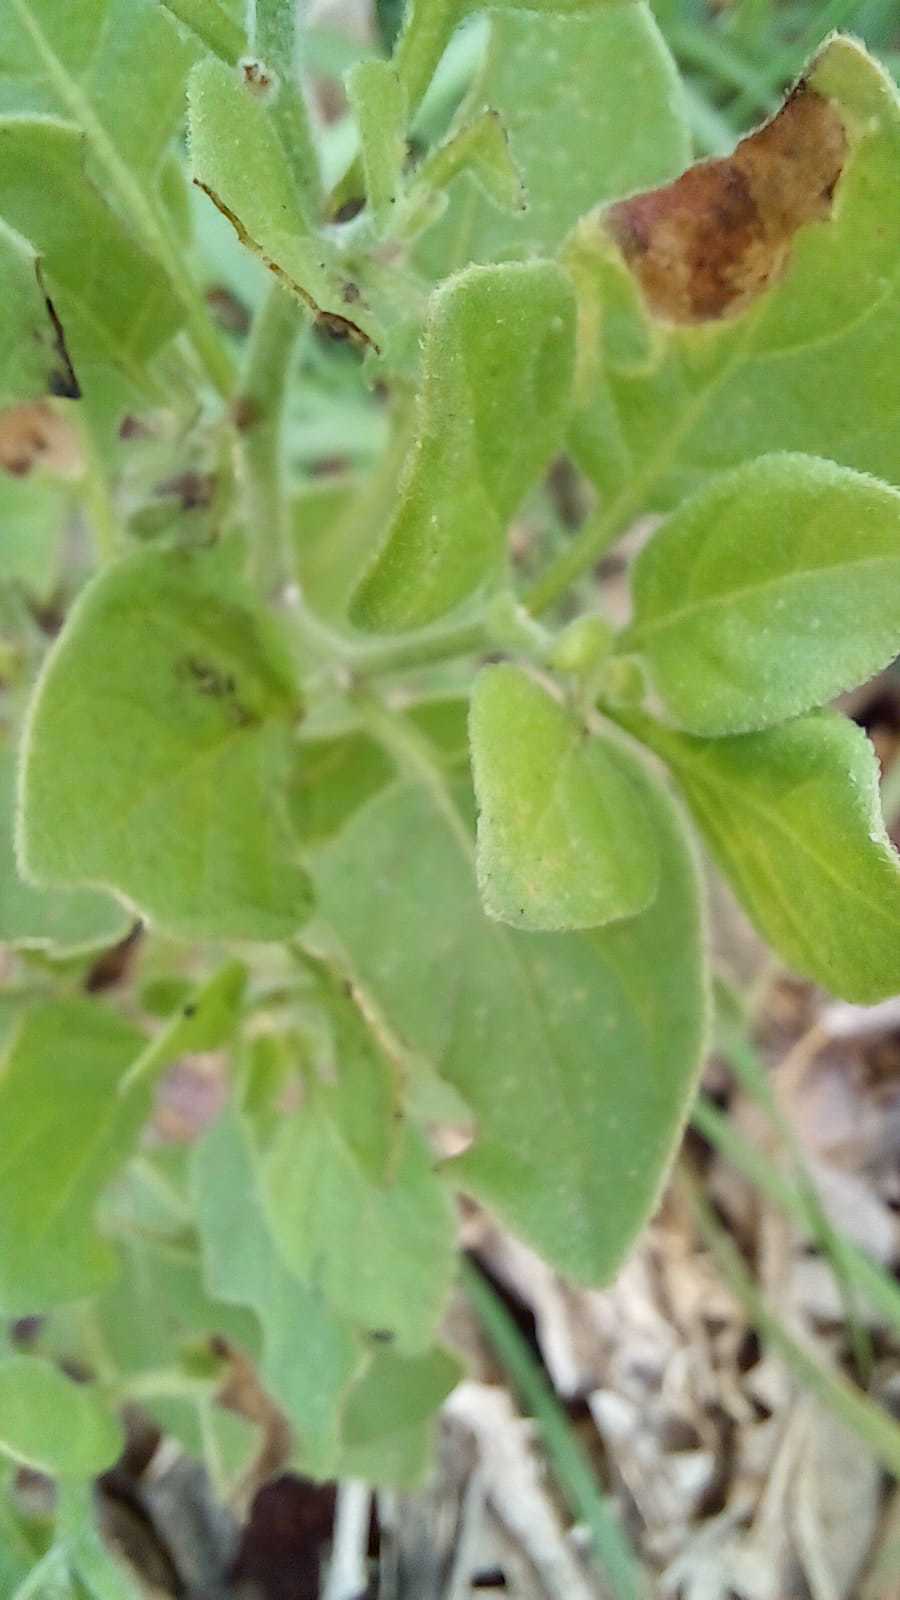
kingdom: Plantae
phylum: Tracheophyta
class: Magnoliopsida
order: Solanales
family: Solanaceae
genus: Salpichroa
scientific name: Salpichroa origanifolia
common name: Lily-of-the-valley-vine
